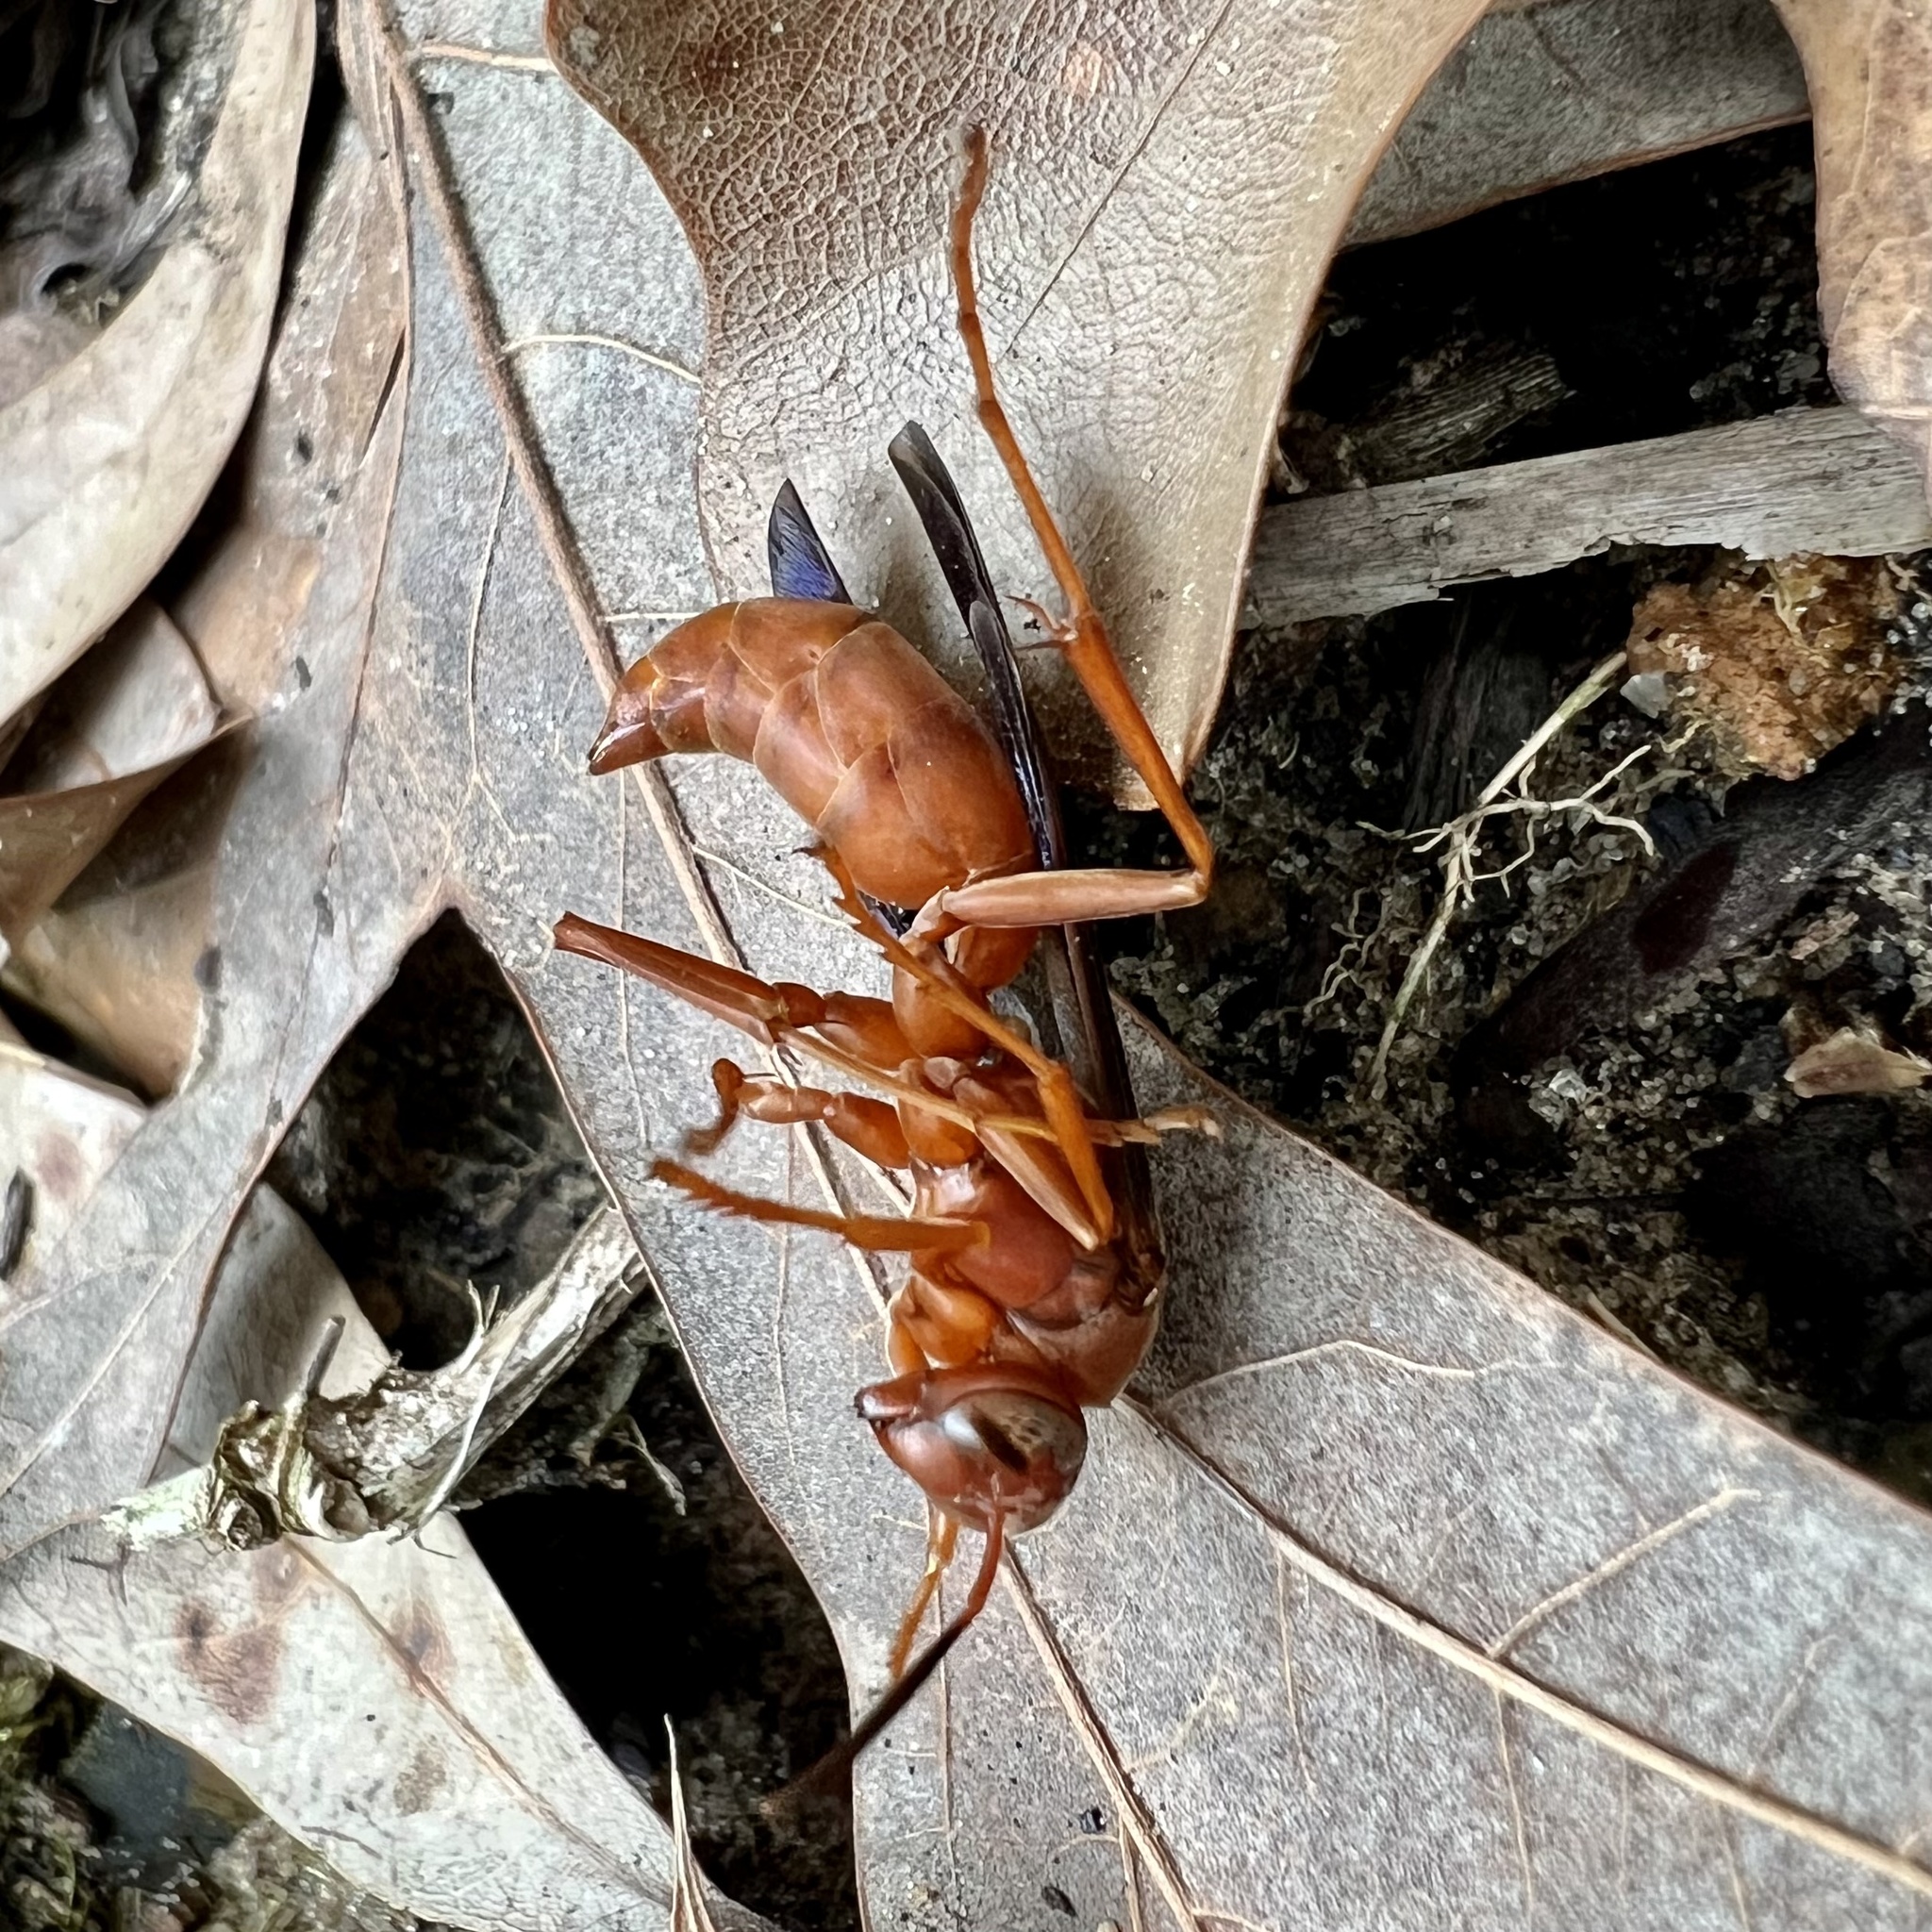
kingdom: Animalia
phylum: Arthropoda
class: Insecta
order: Hymenoptera
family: Eumenidae
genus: Polistes
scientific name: Polistes carolina
